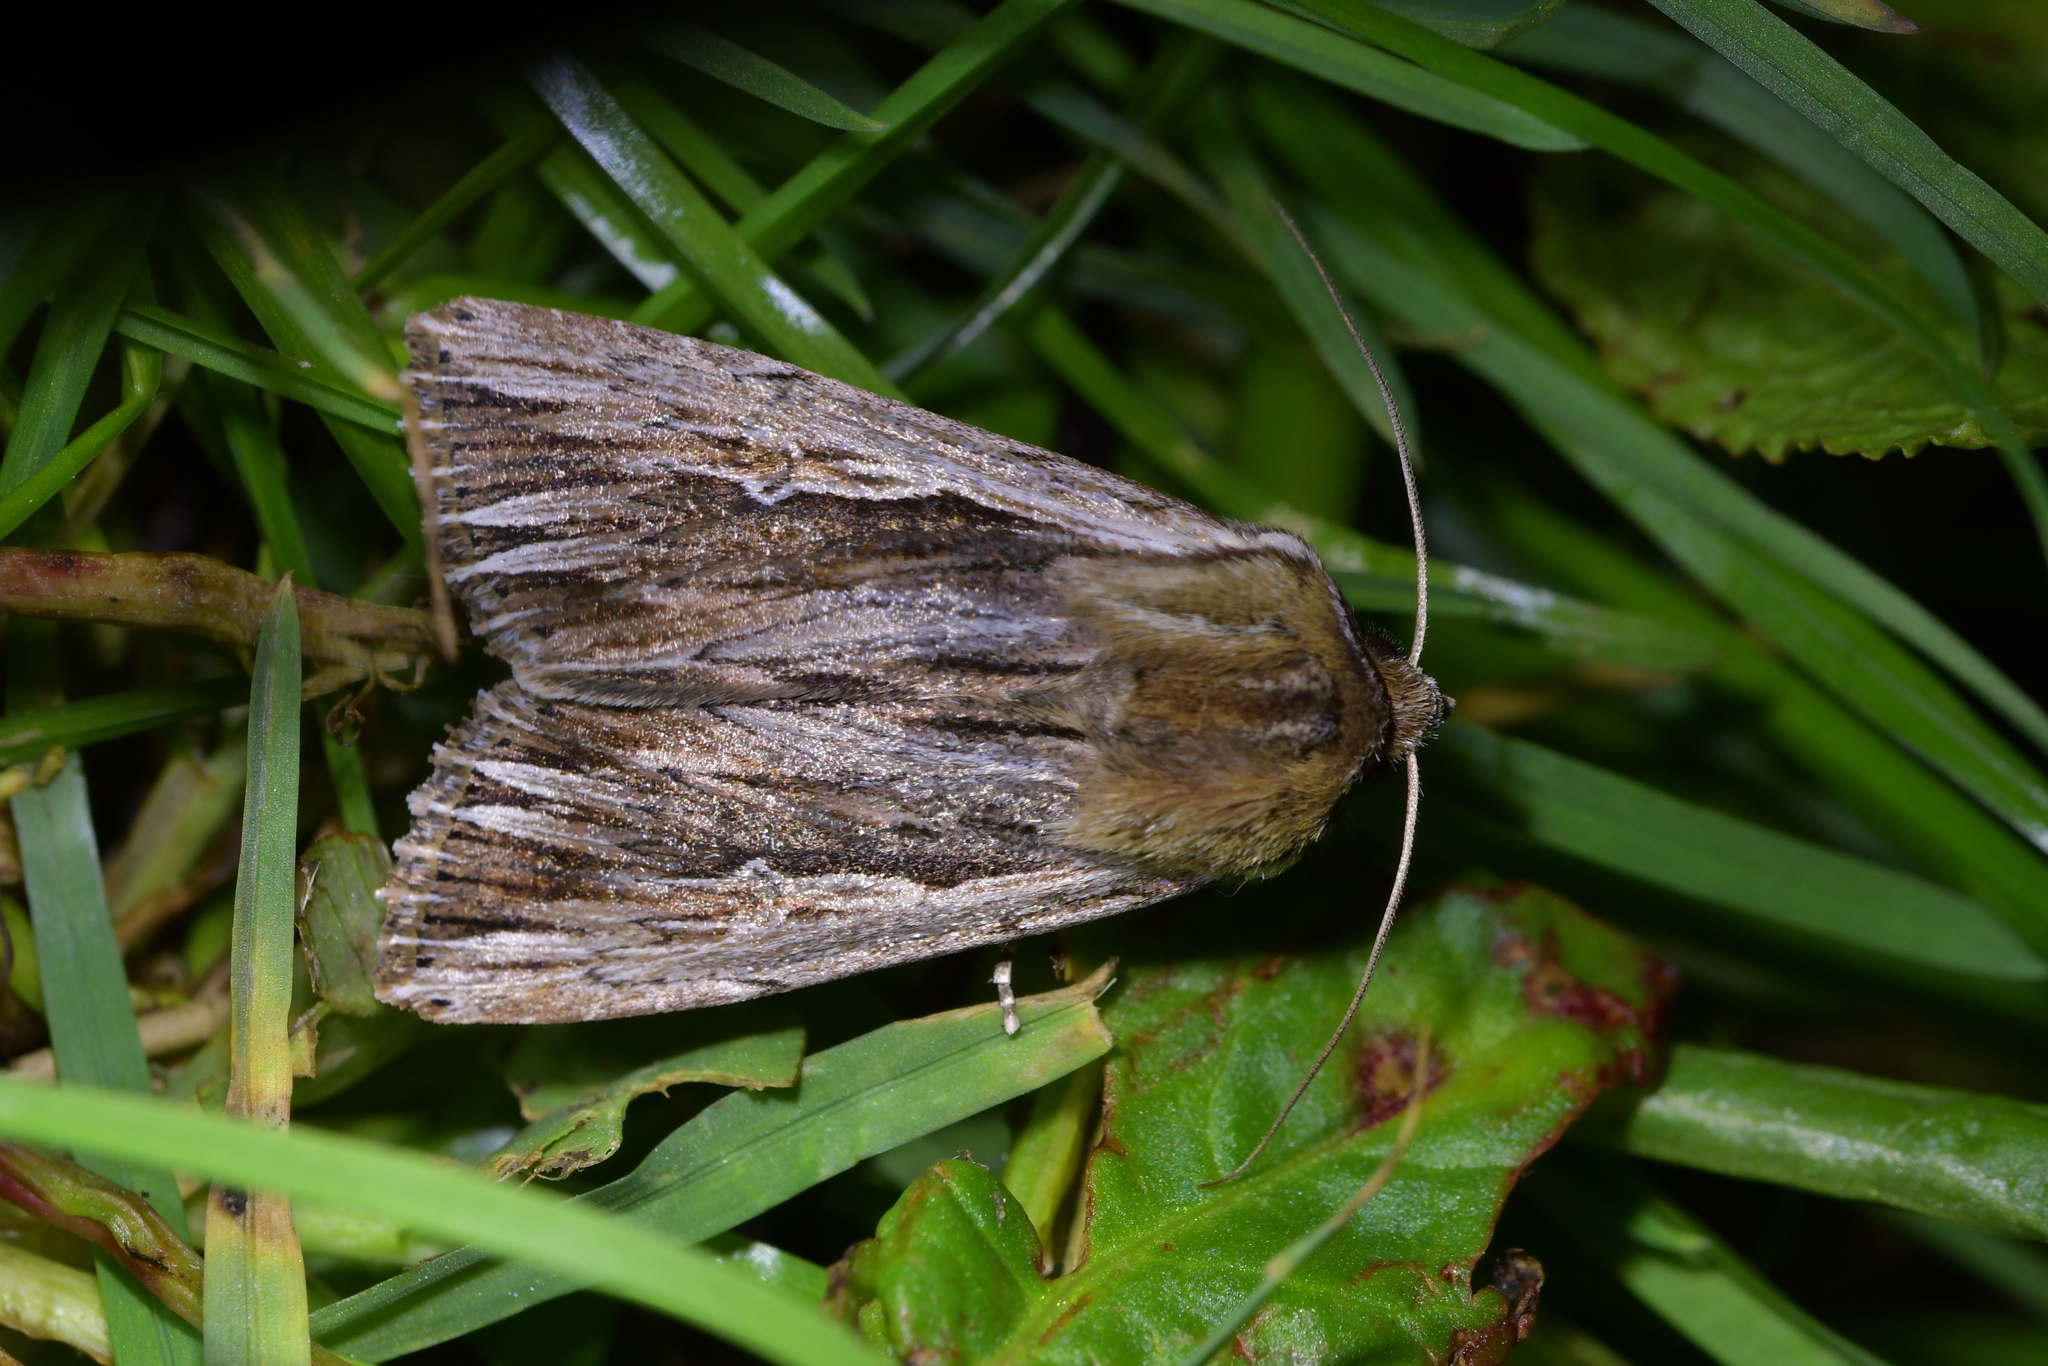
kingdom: Animalia
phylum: Arthropoda
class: Insecta
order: Lepidoptera
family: Noctuidae
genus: Persectania
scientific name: Persectania aversa
